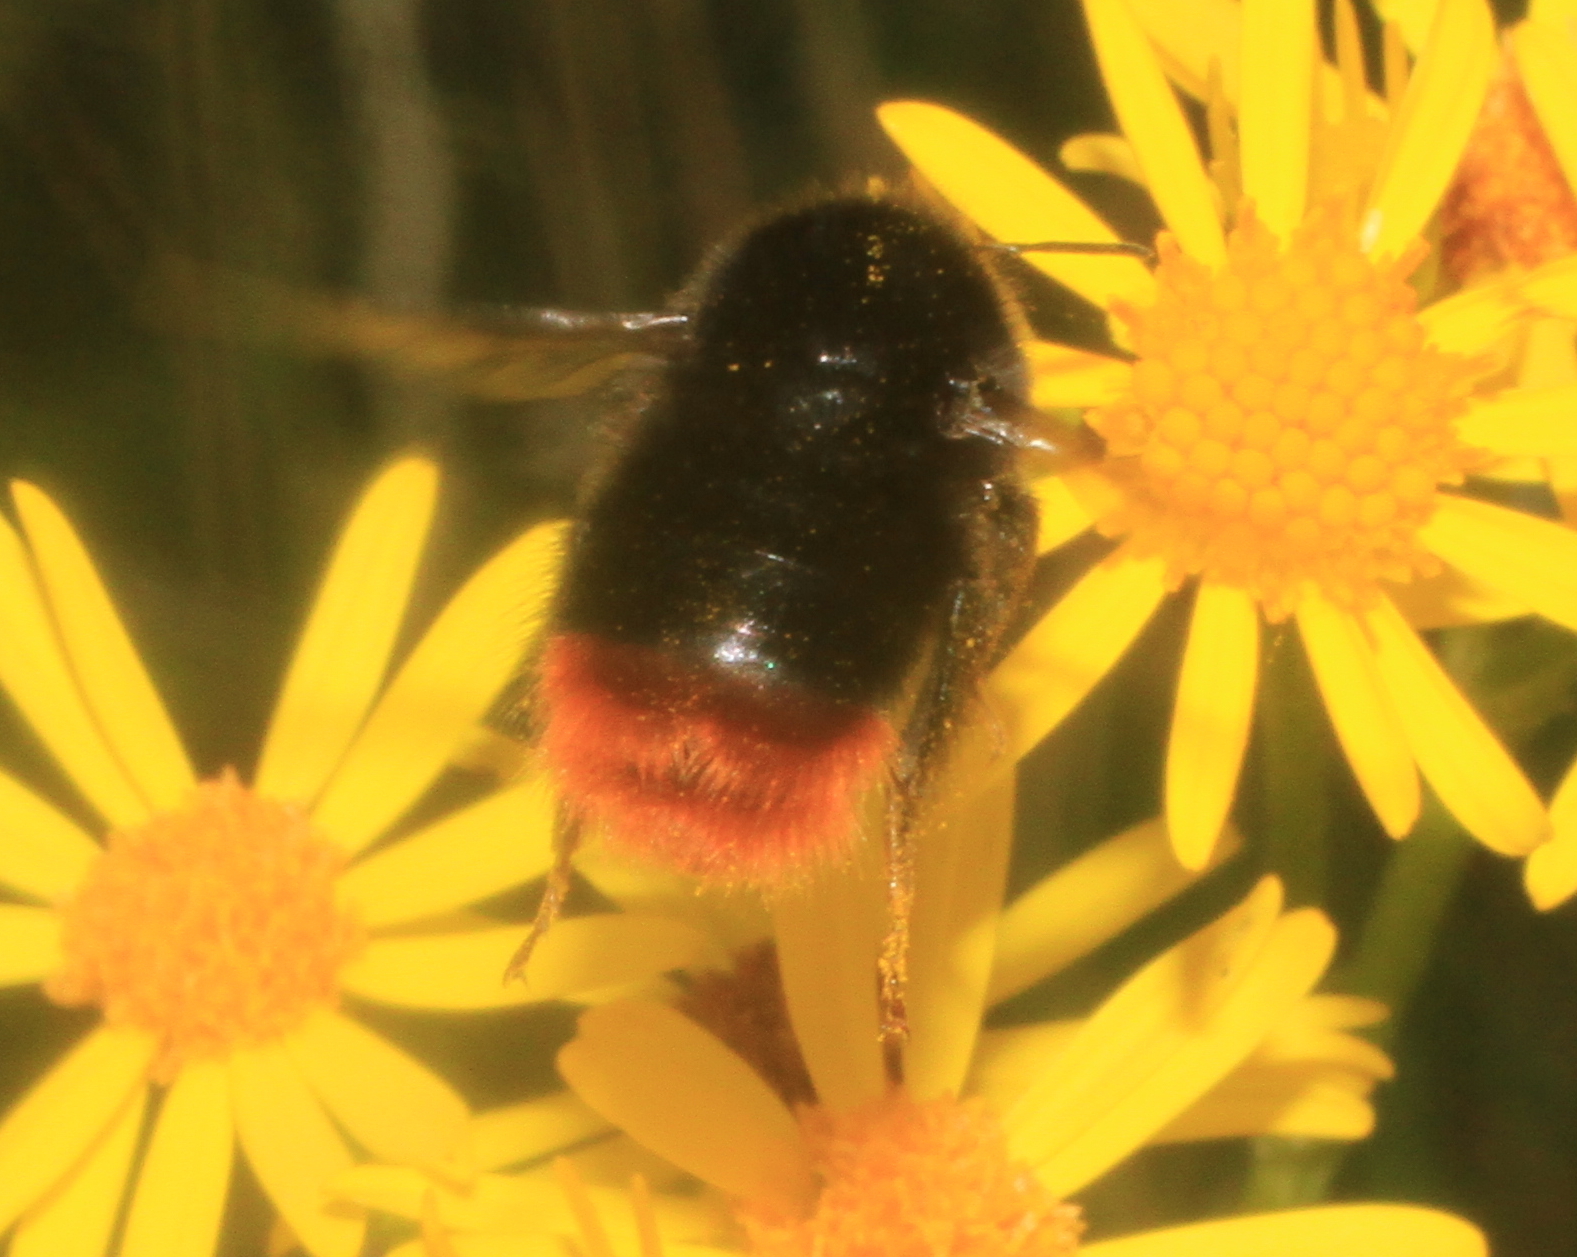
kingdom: Animalia
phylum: Arthropoda
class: Insecta
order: Hymenoptera
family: Apidae
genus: Bombus
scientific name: Bombus lapidarius
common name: Large red-tailed humble-bee
